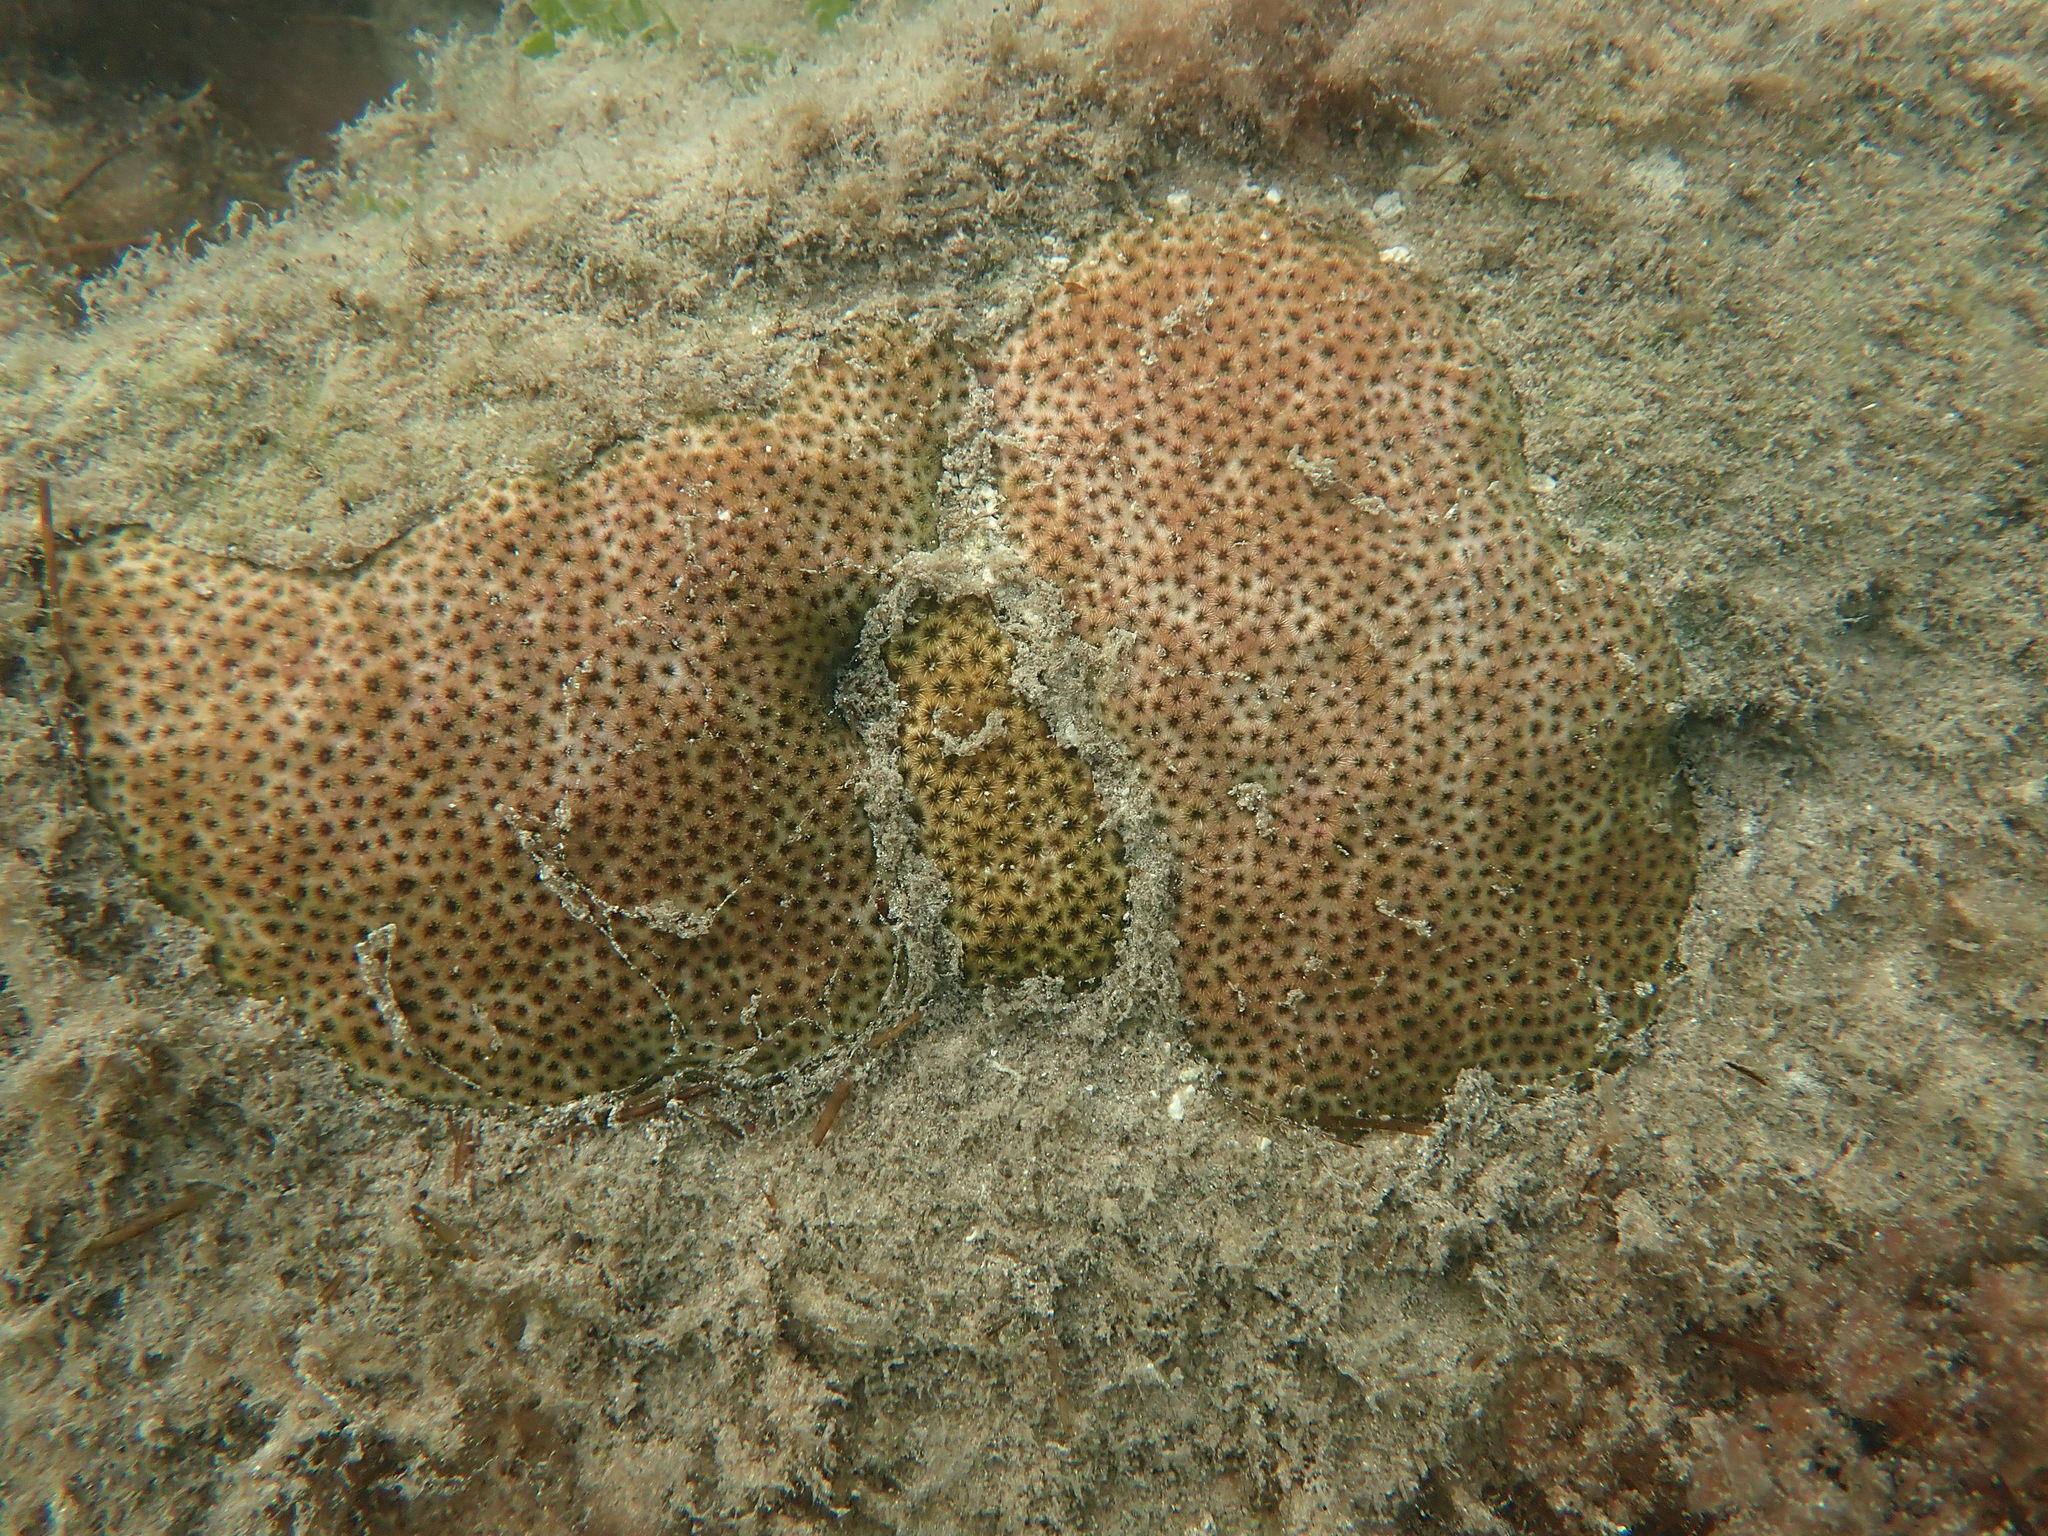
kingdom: Animalia
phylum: Cnidaria
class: Anthozoa
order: Scleractinia
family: Rhizangiidae
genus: Siderastrea
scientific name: Siderastrea radians
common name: Lesser starlet coral
